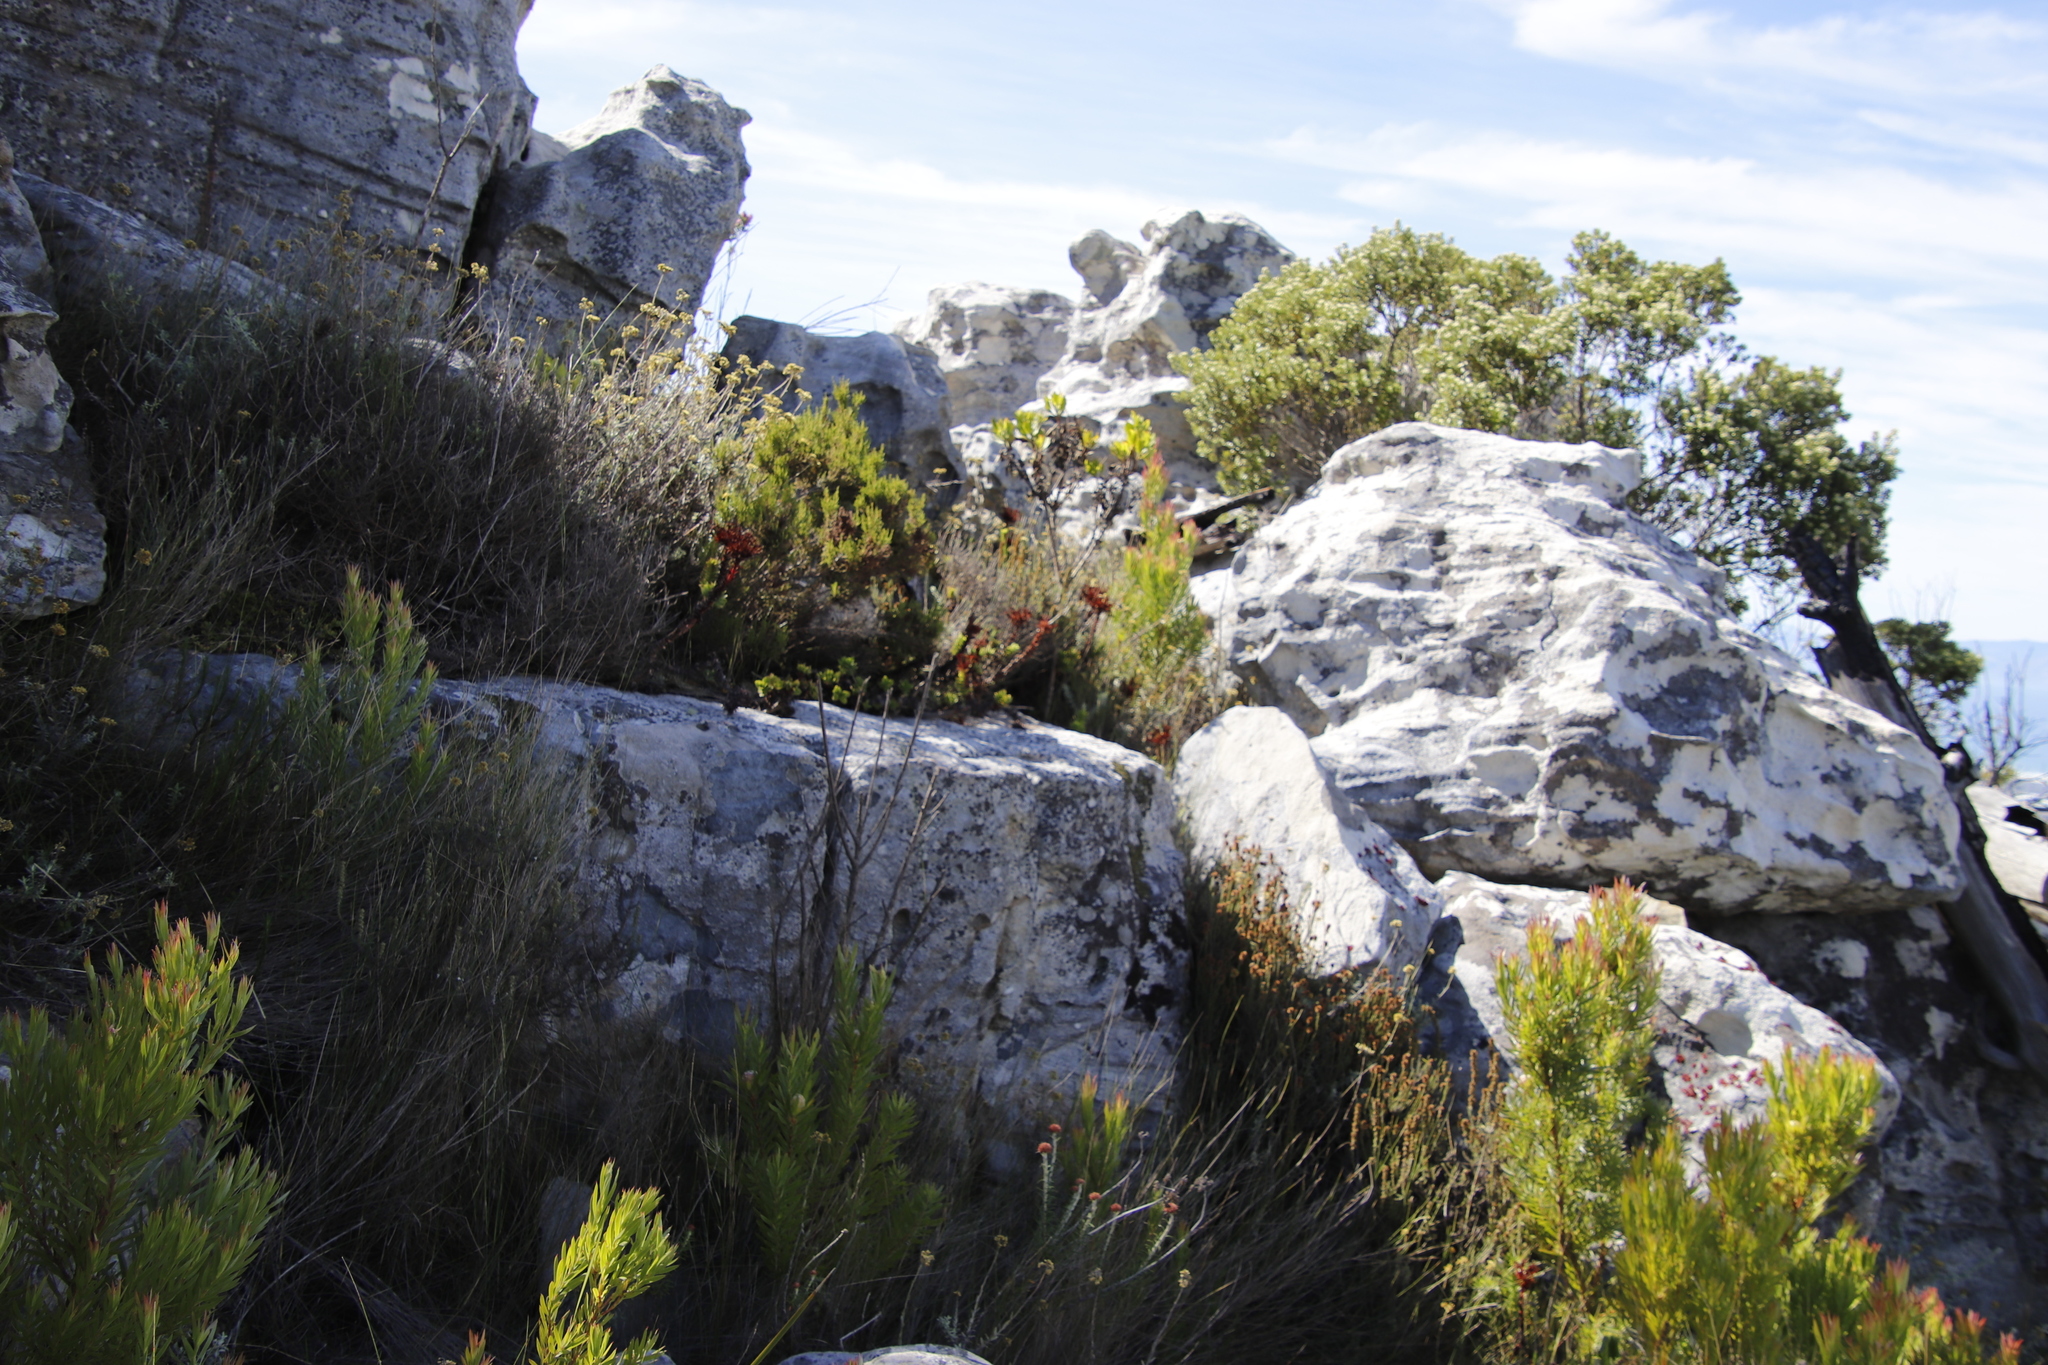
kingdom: Plantae
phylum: Tracheophyta
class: Magnoliopsida
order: Saxifragales
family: Crassulaceae
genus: Crassula
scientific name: Crassula coccinea
